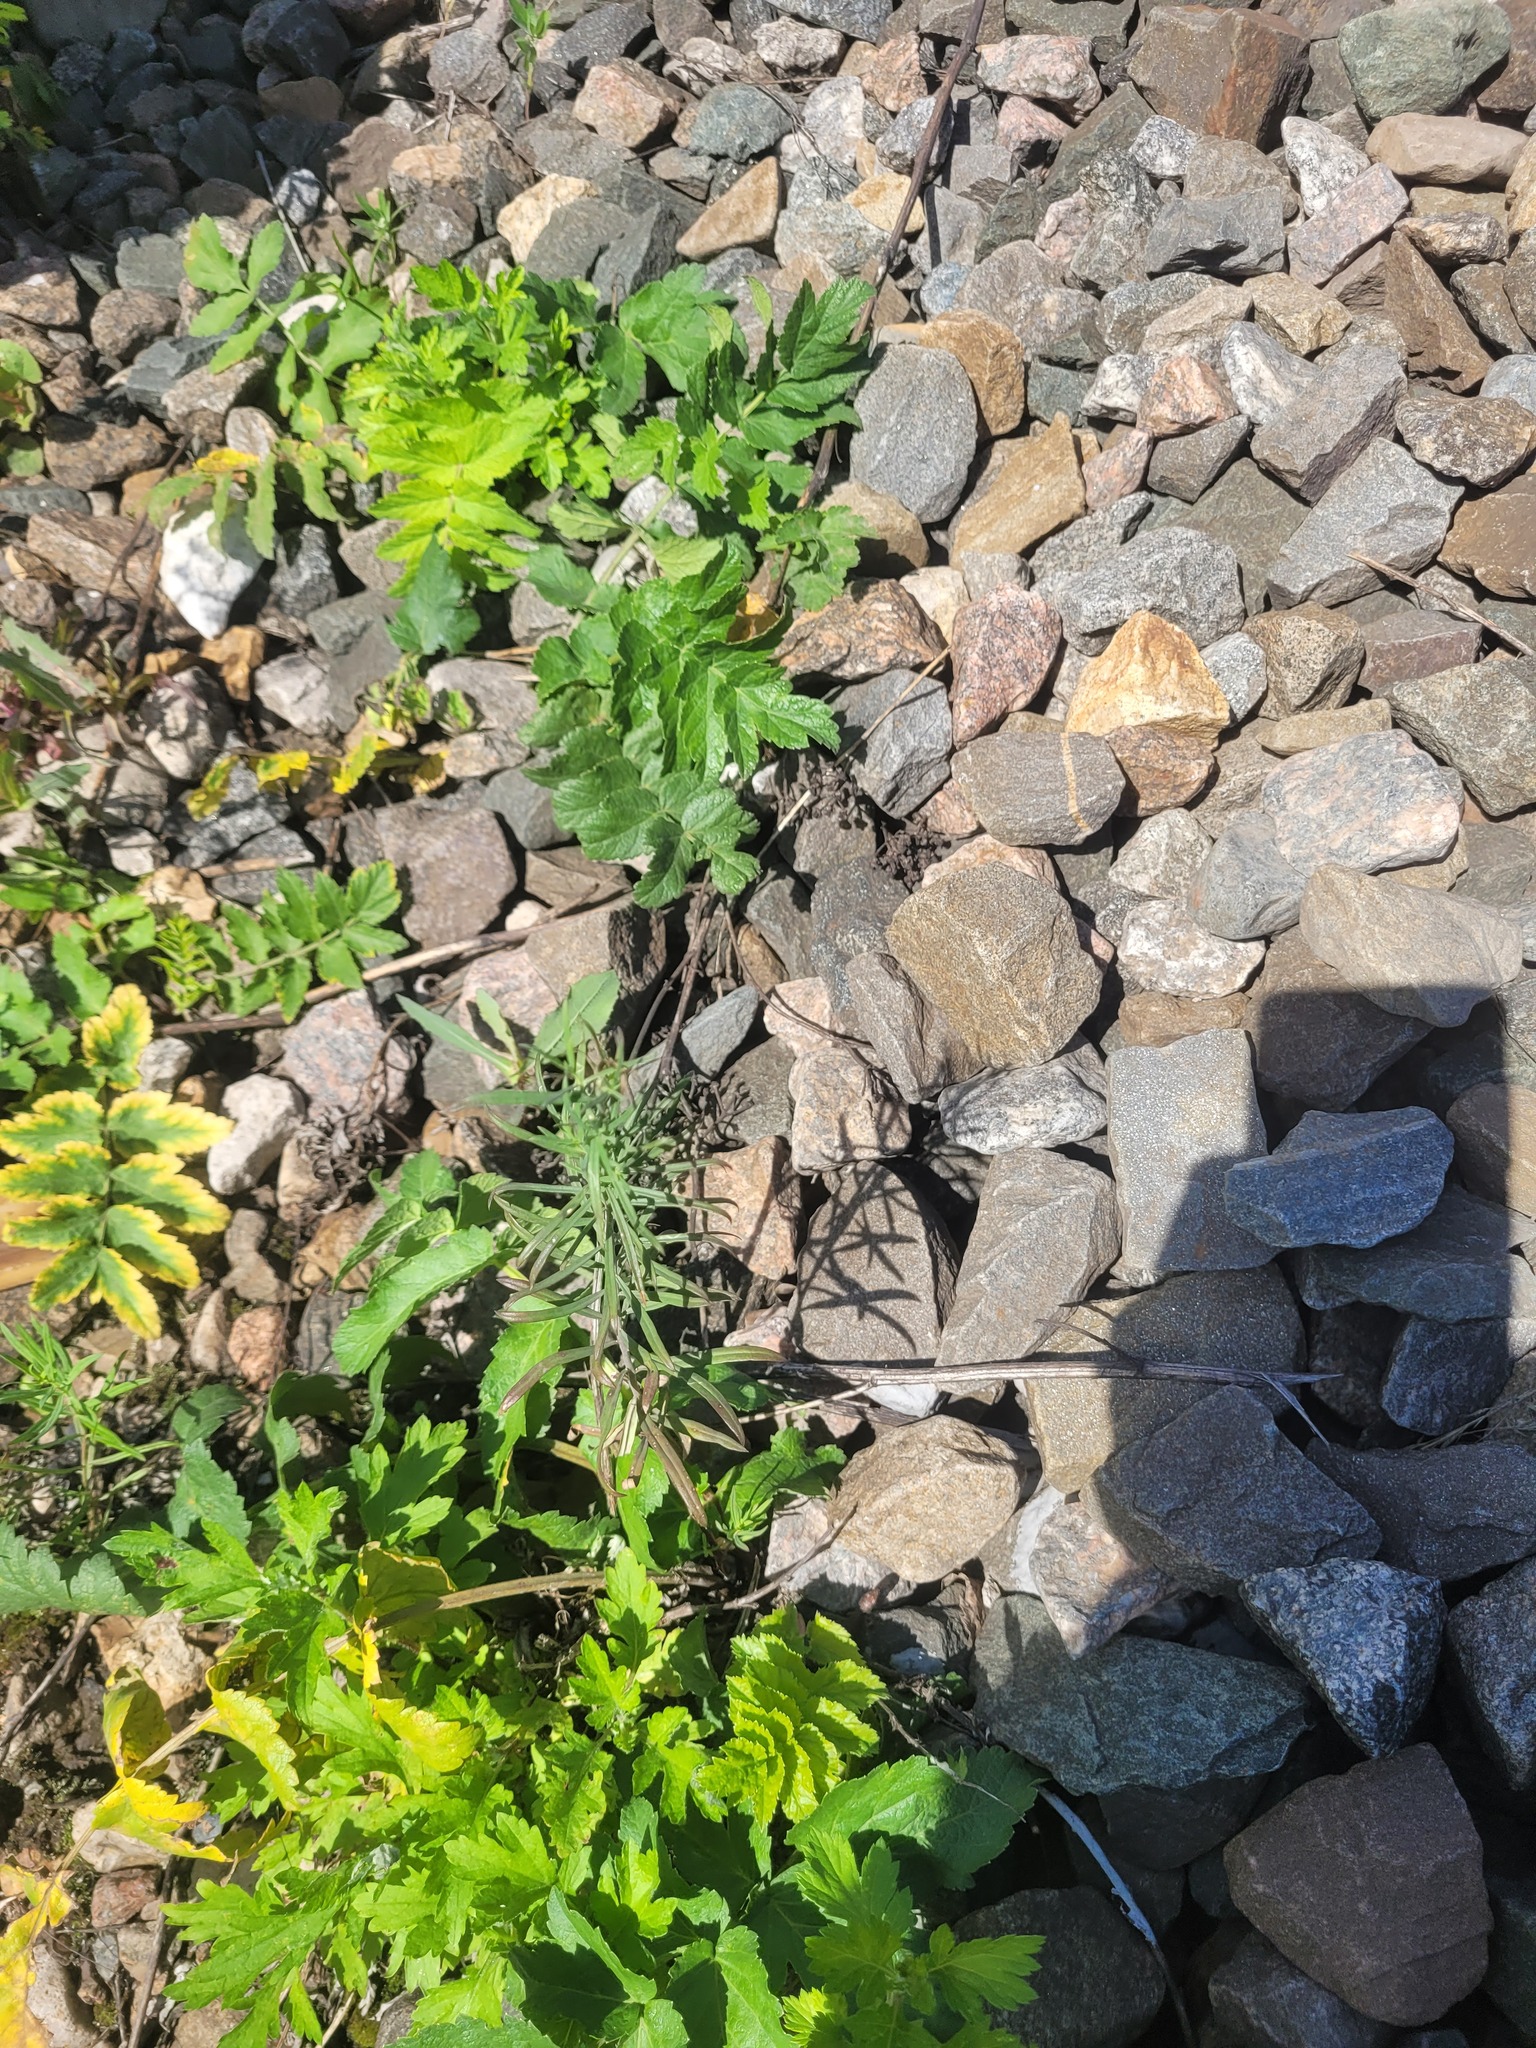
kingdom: Plantae
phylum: Tracheophyta
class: Magnoliopsida
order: Lamiales
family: Plantaginaceae
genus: Linaria
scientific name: Linaria vulgaris
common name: Butter and eggs
